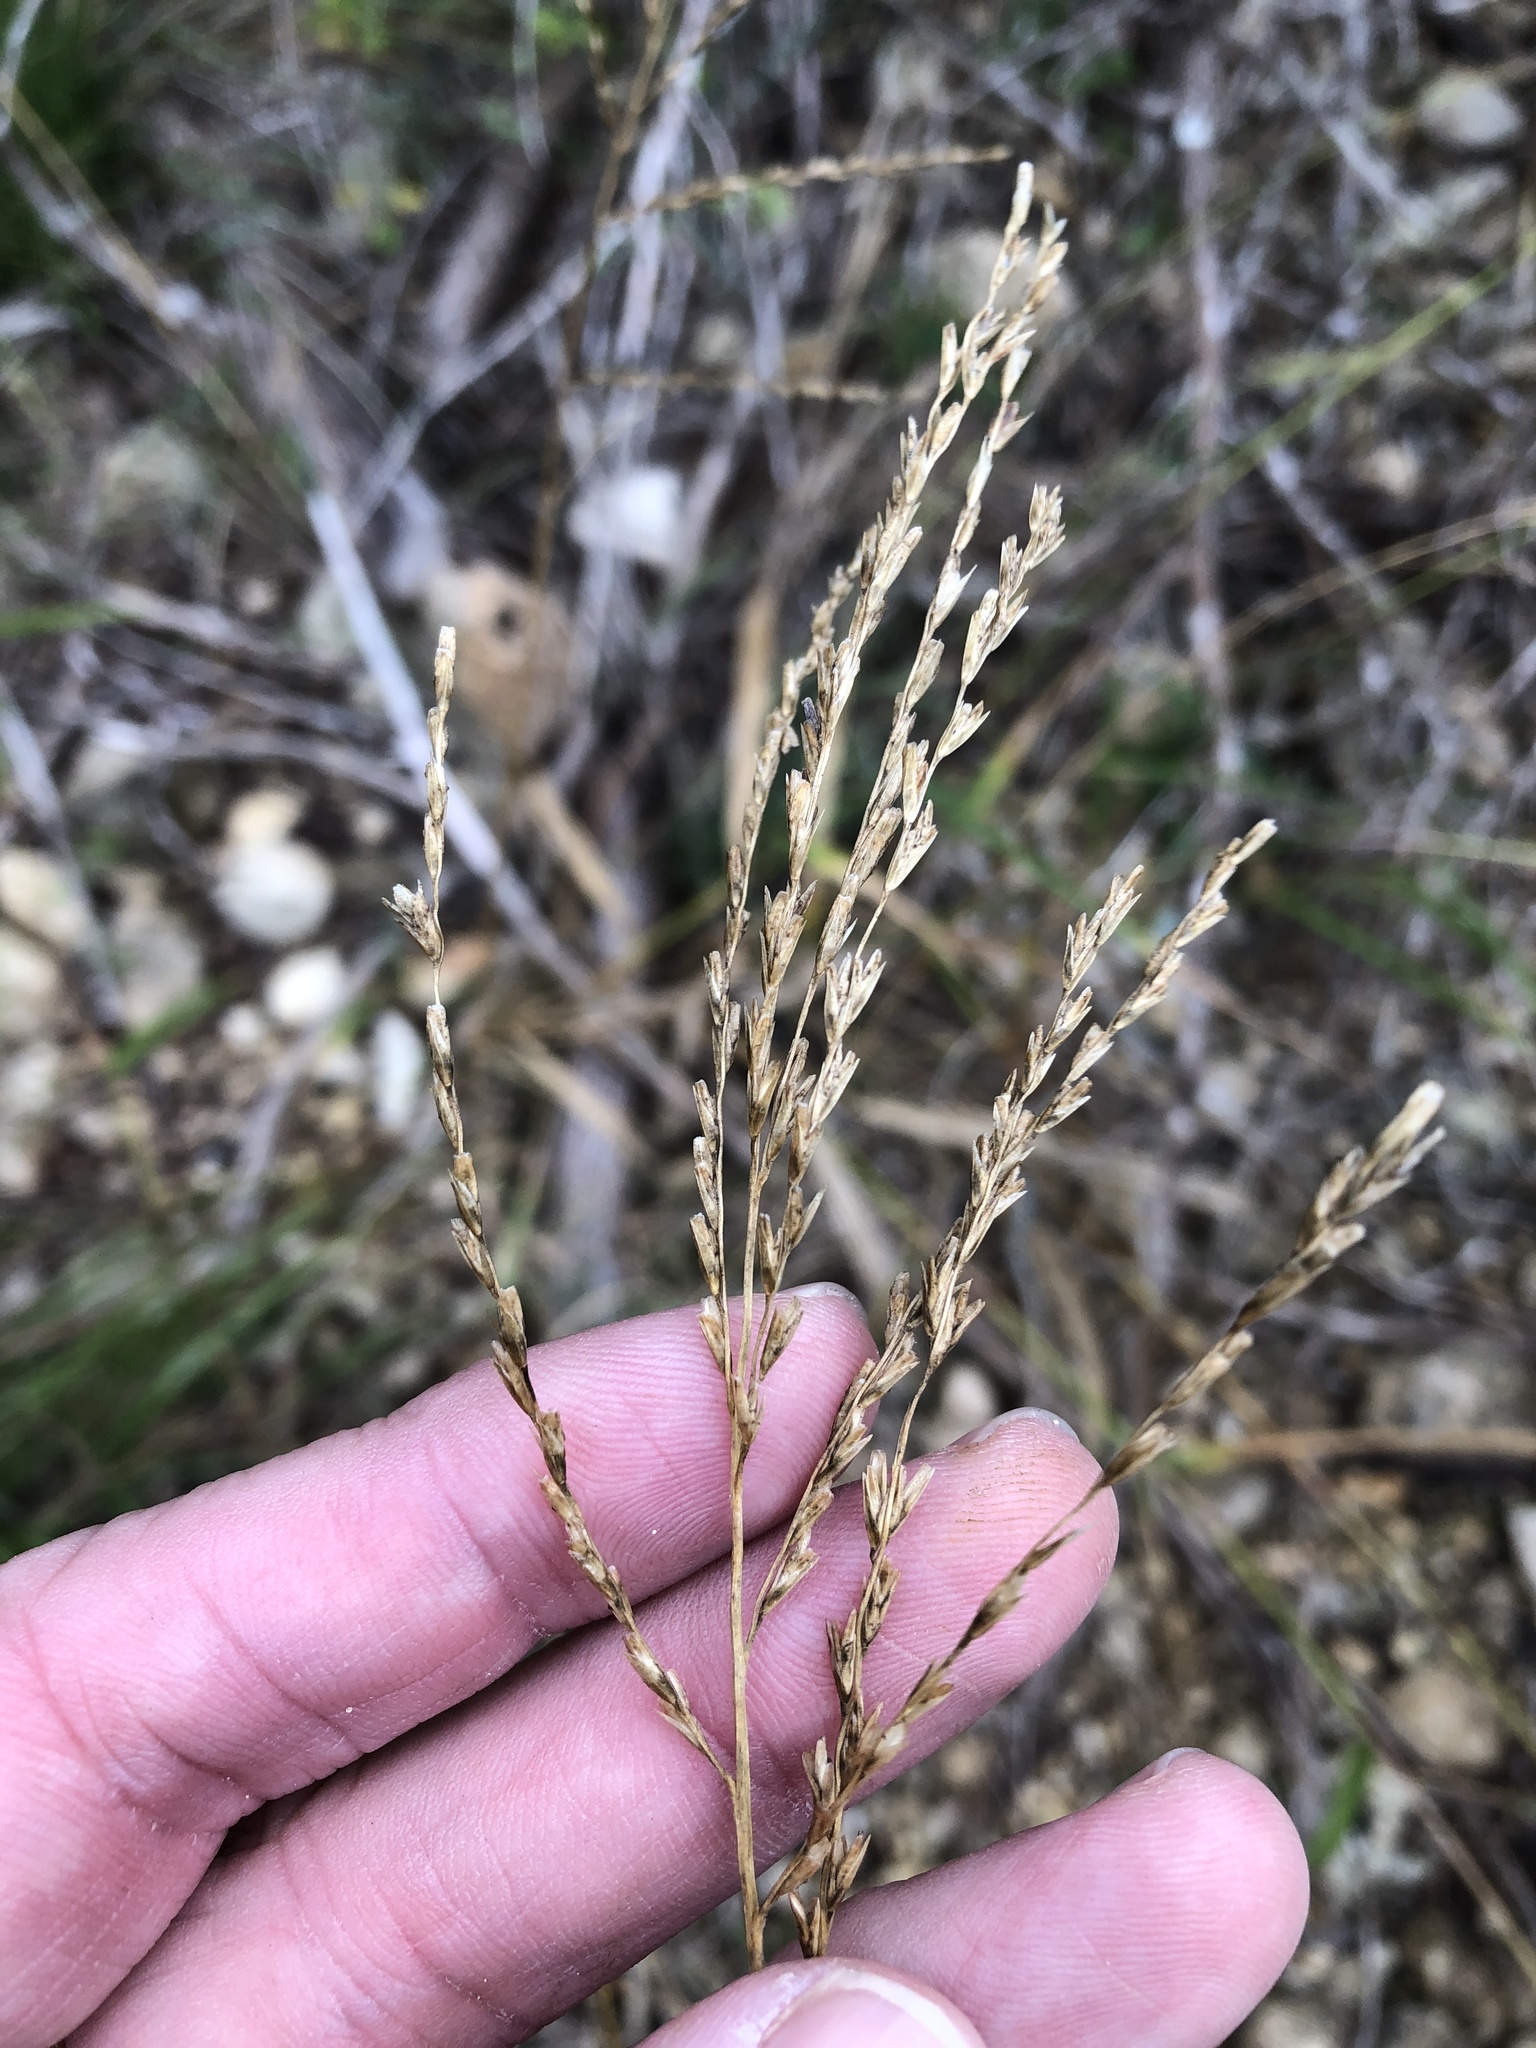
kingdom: Plantae
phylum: Tracheophyta
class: Liliopsida
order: Poales
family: Poaceae
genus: Disakisperma
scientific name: Disakisperma dubium
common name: Green sprangletop
